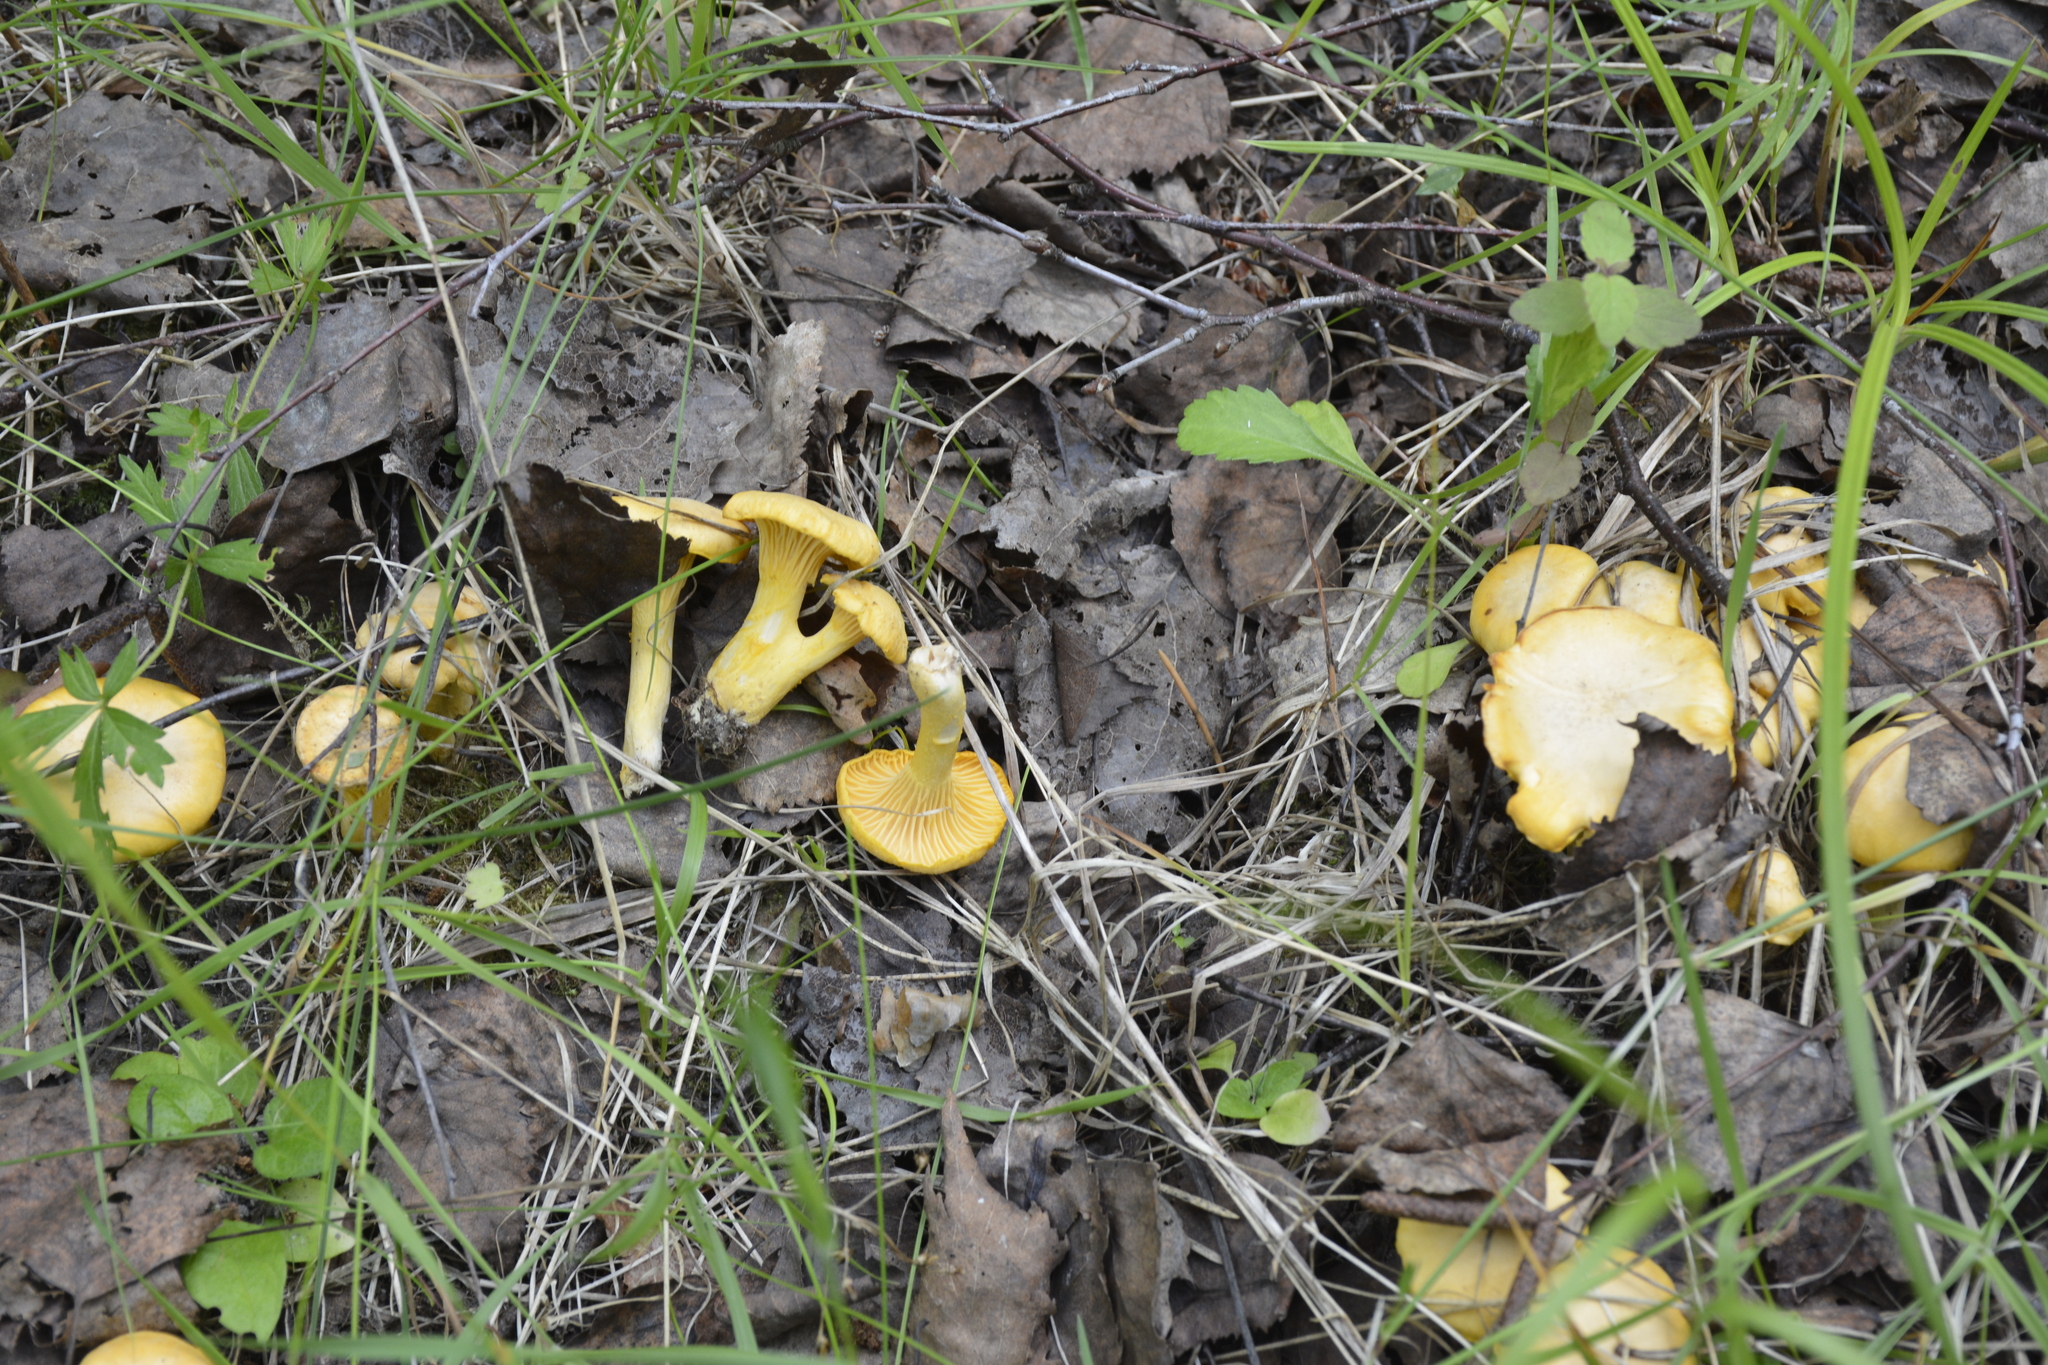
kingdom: Fungi
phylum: Basidiomycota
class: Agaricomycetes
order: Cantharellales
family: Hydnaceae
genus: Cantharellus
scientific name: Cantharellus cibarius
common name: Chanterelle
